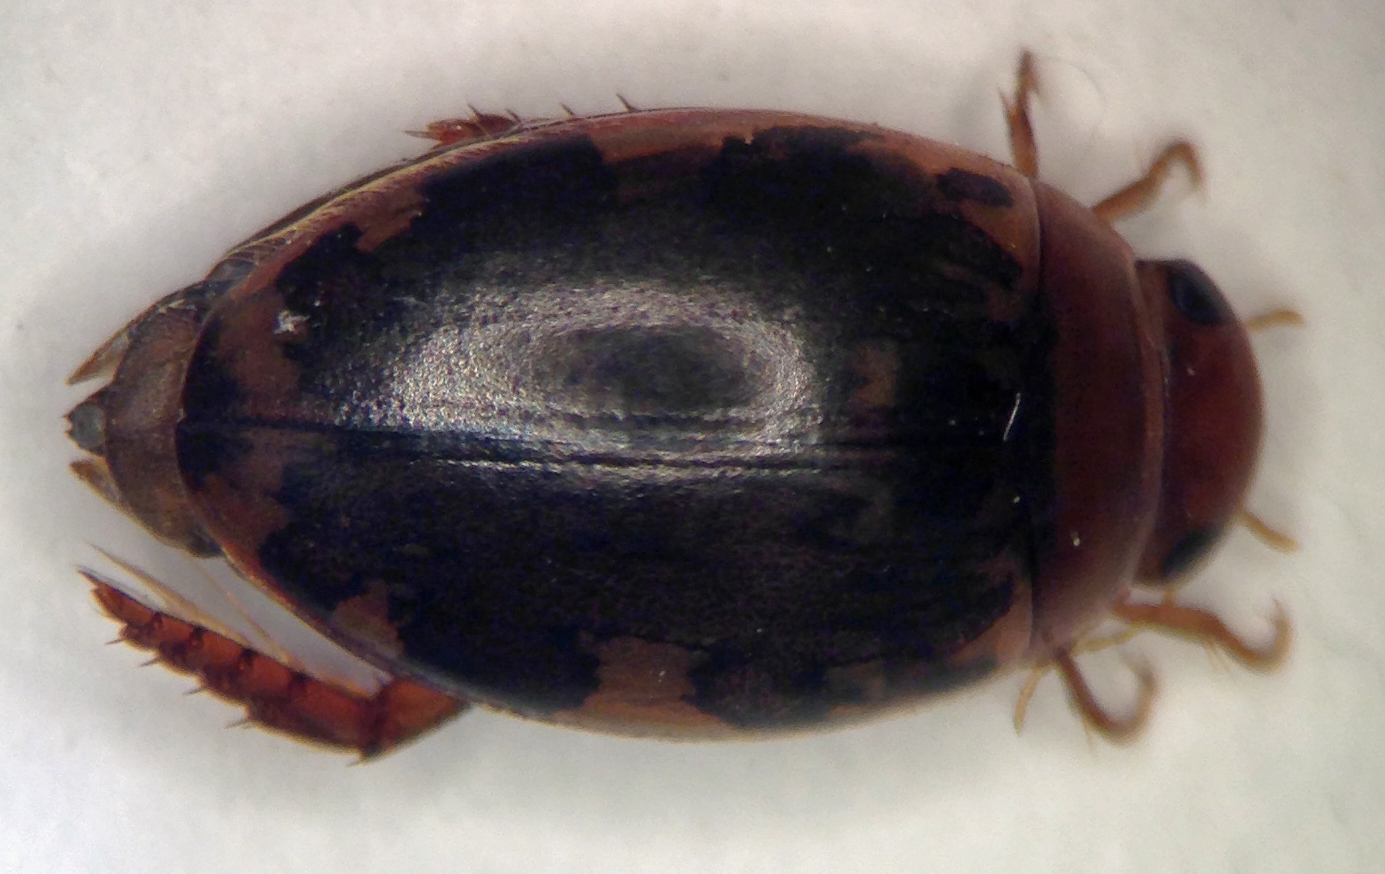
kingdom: Animalia
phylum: Arthropoda
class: Insecta
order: Coleoptera
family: Dytiscidae
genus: Laccophilus
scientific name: Laccophilus maculosus
